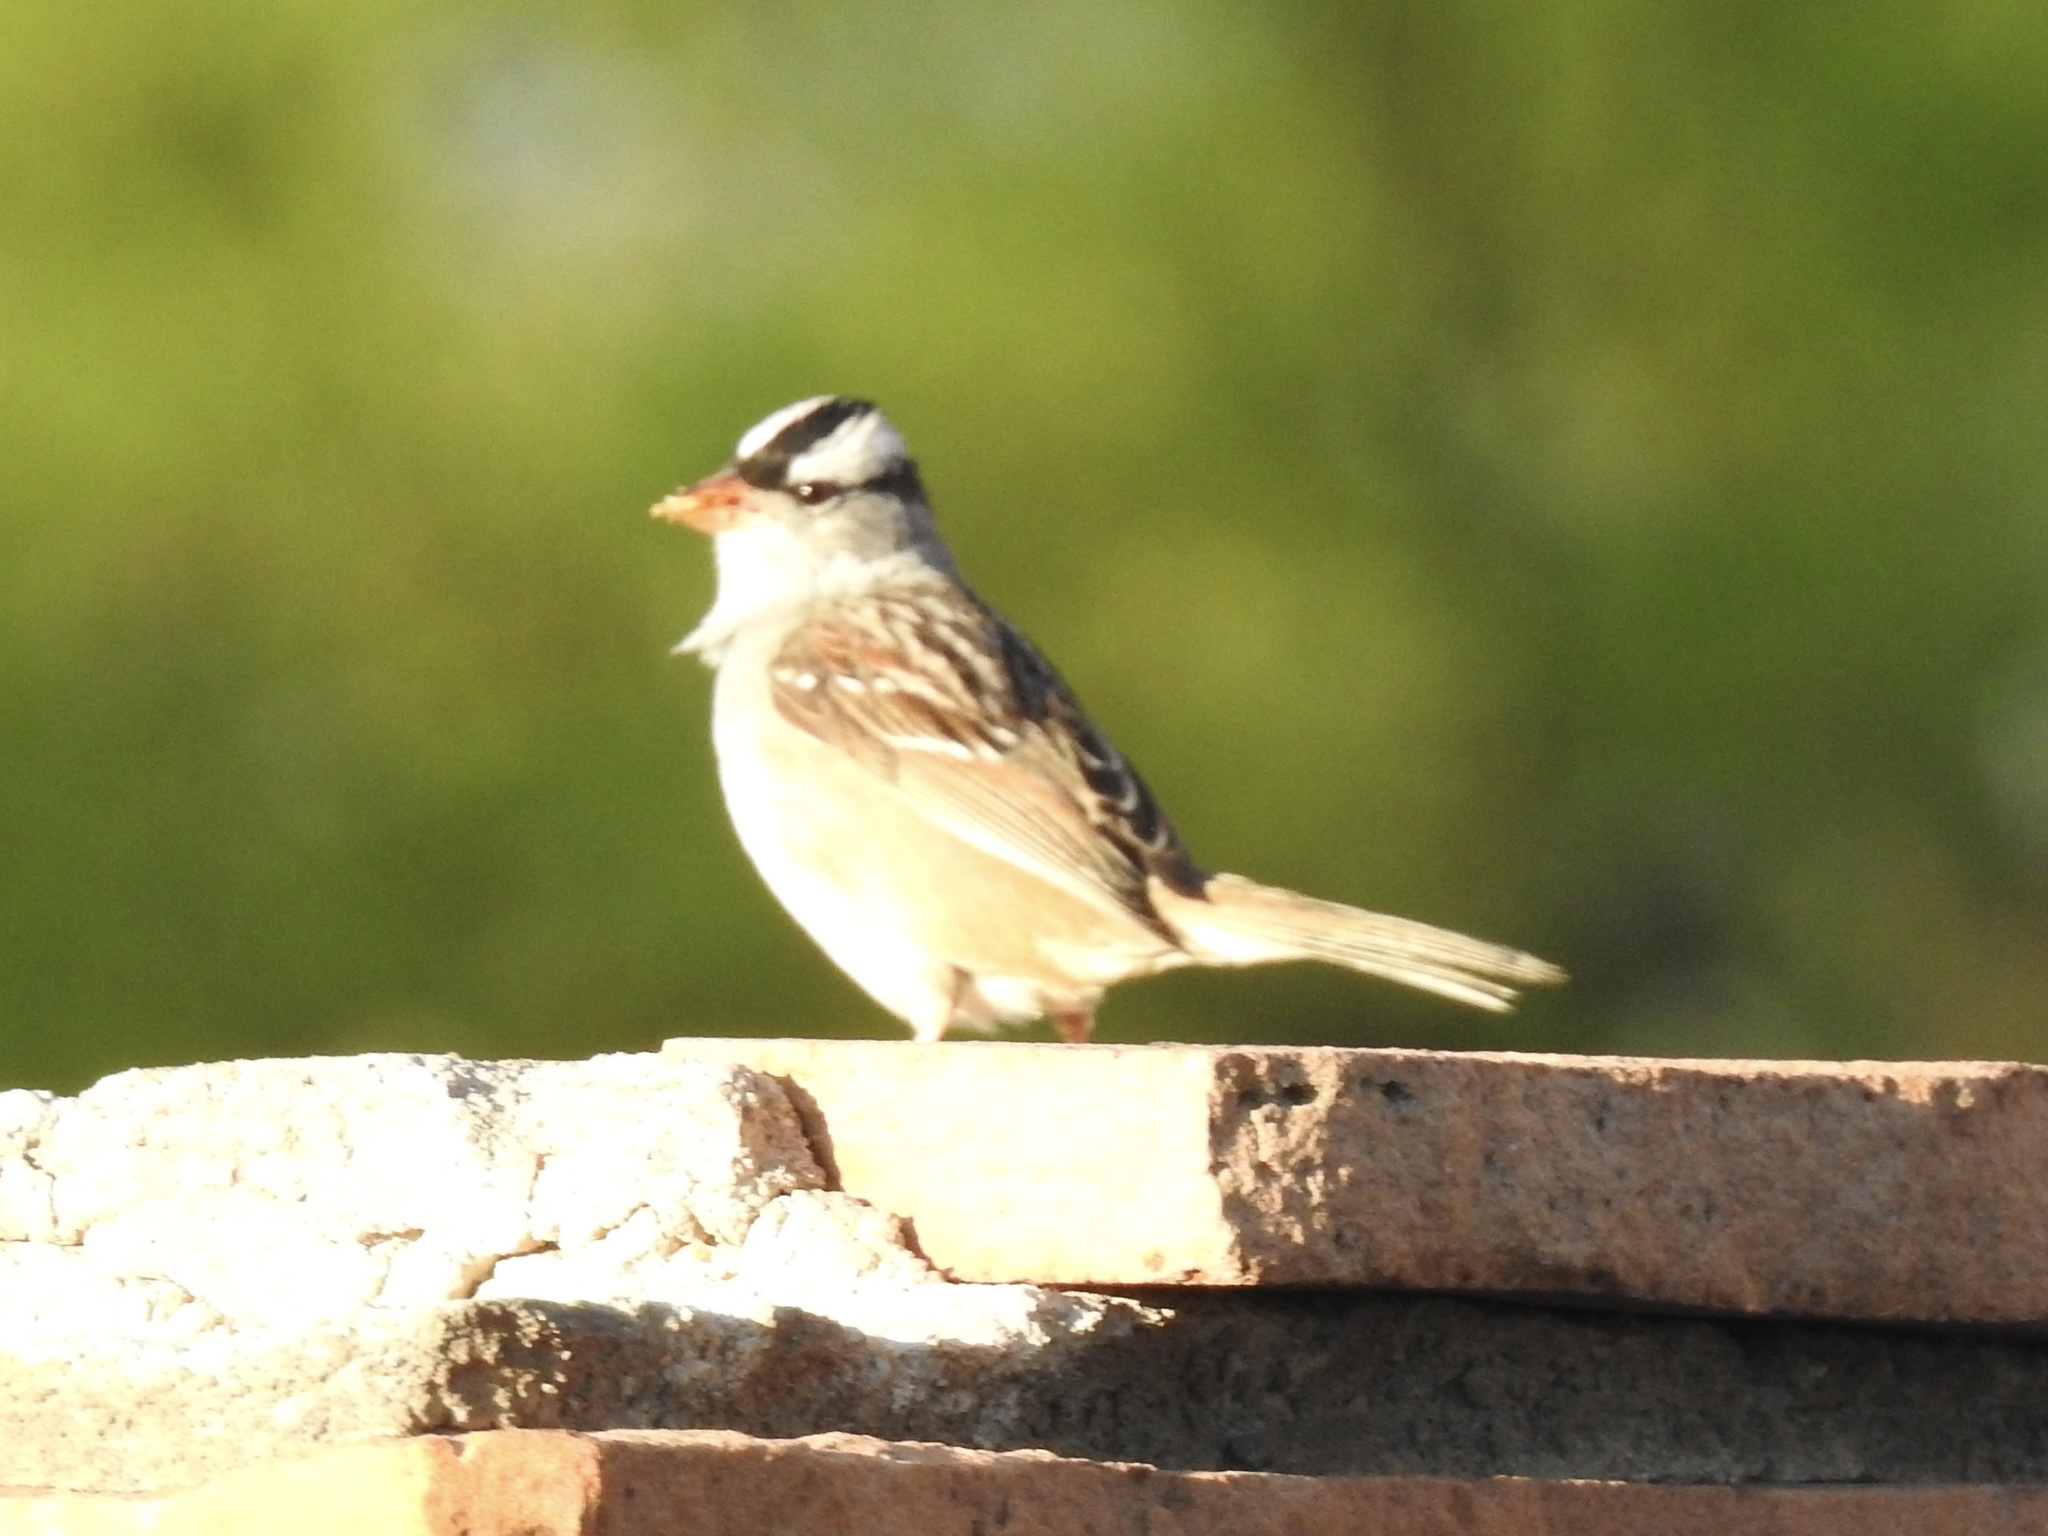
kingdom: Animalia
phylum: Chordata
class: Aves
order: Passeriformes
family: Passerellidae
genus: Zonotrichia
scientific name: Zonotrichia leucophrys
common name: White-crowned sparrow
